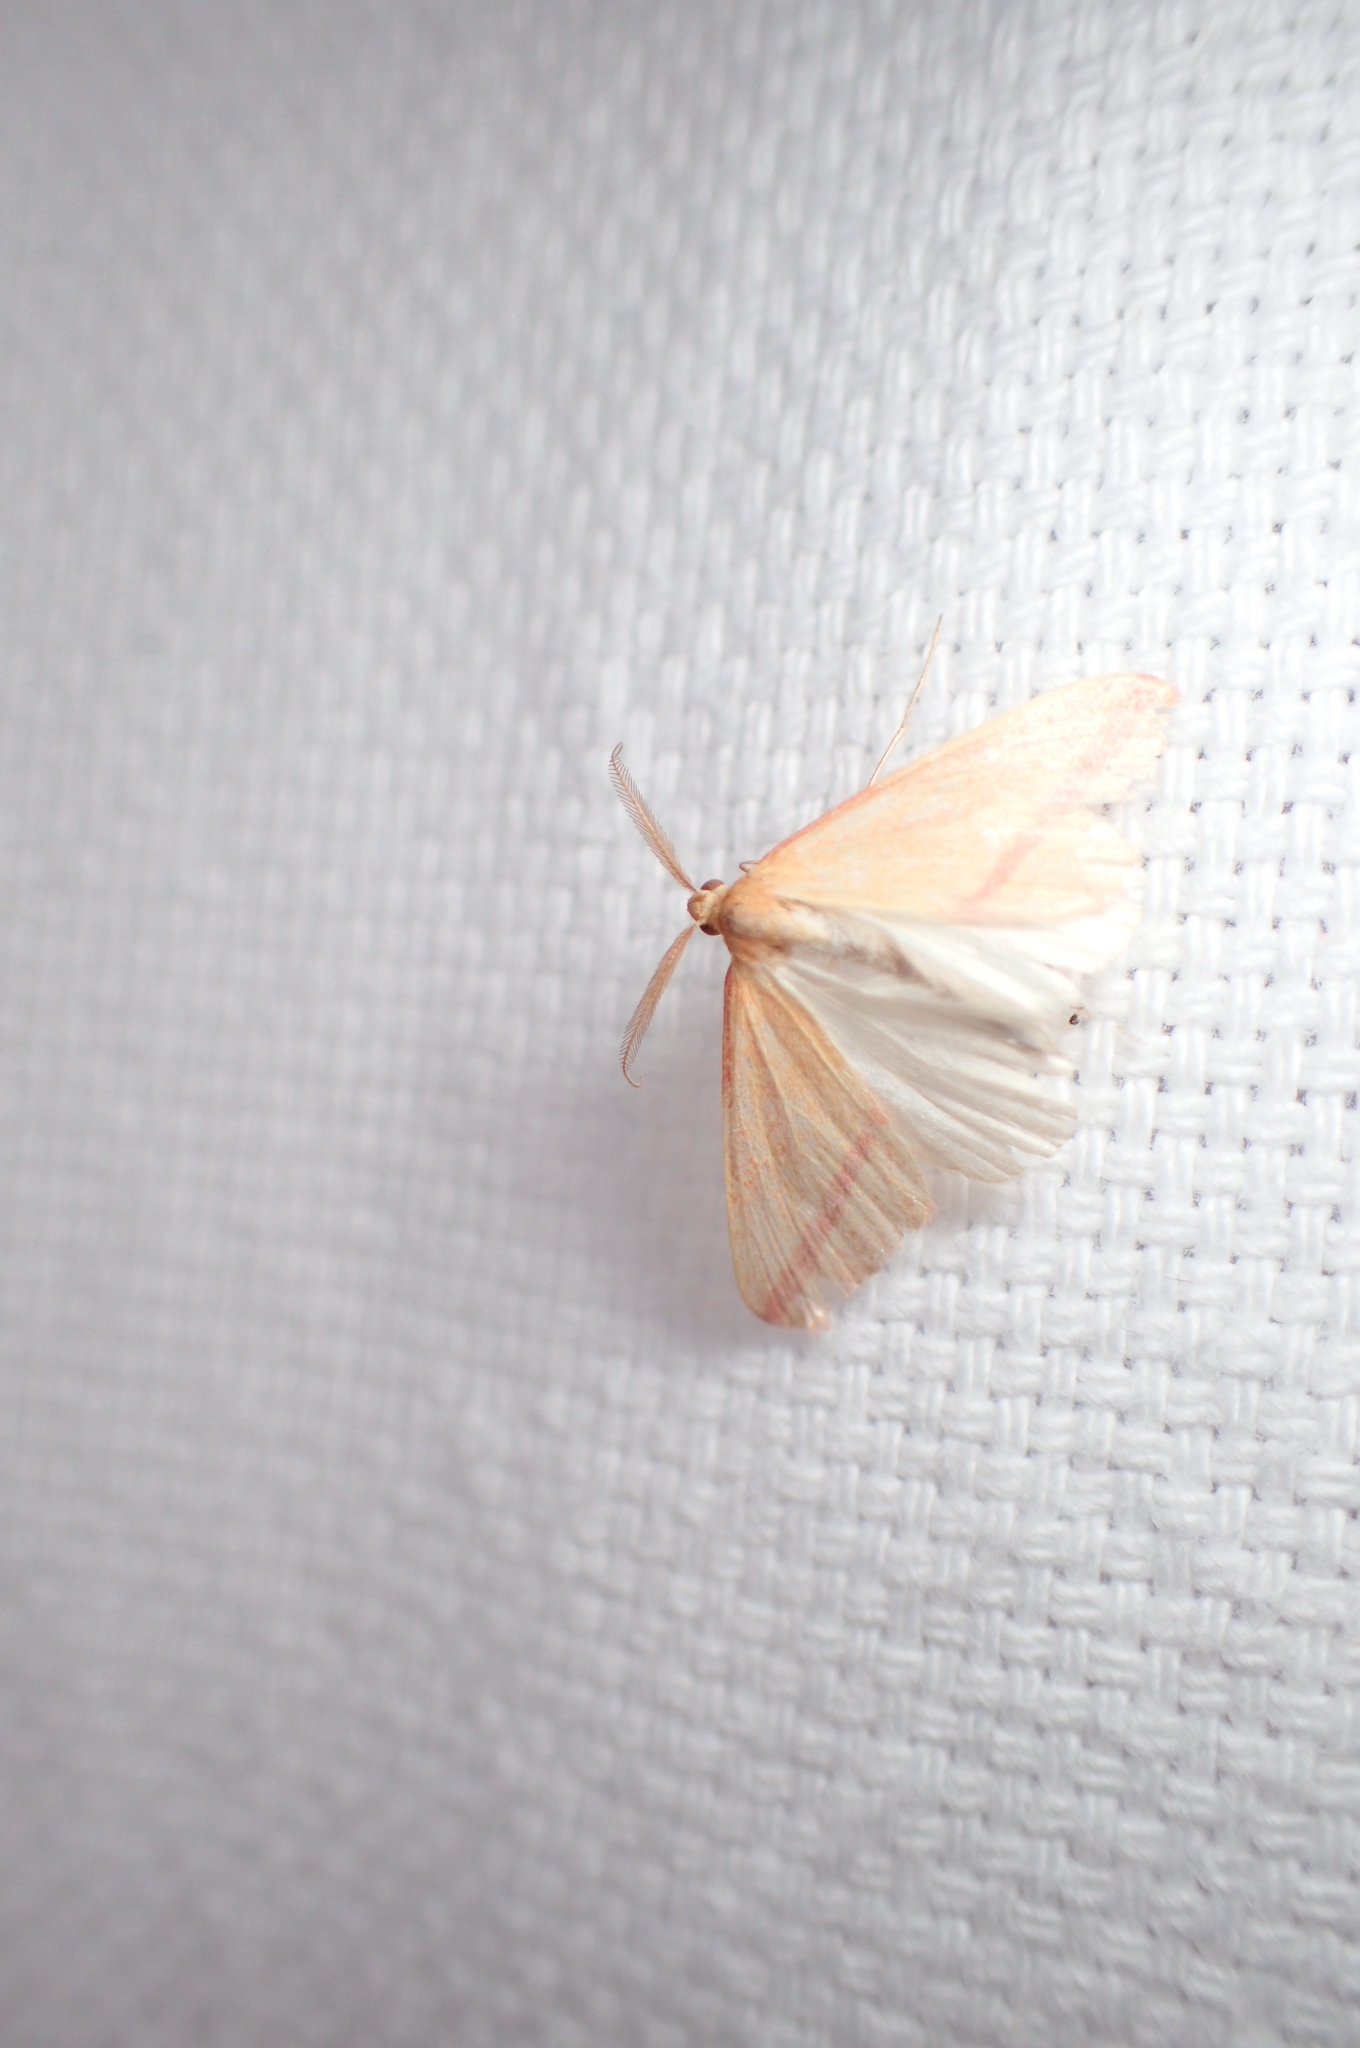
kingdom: Animalia
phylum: Arthropoda
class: Insecta
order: Lepidoptera
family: Geometridae
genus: Rhodometra
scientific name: Rhodometra sacraria
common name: Vestal
